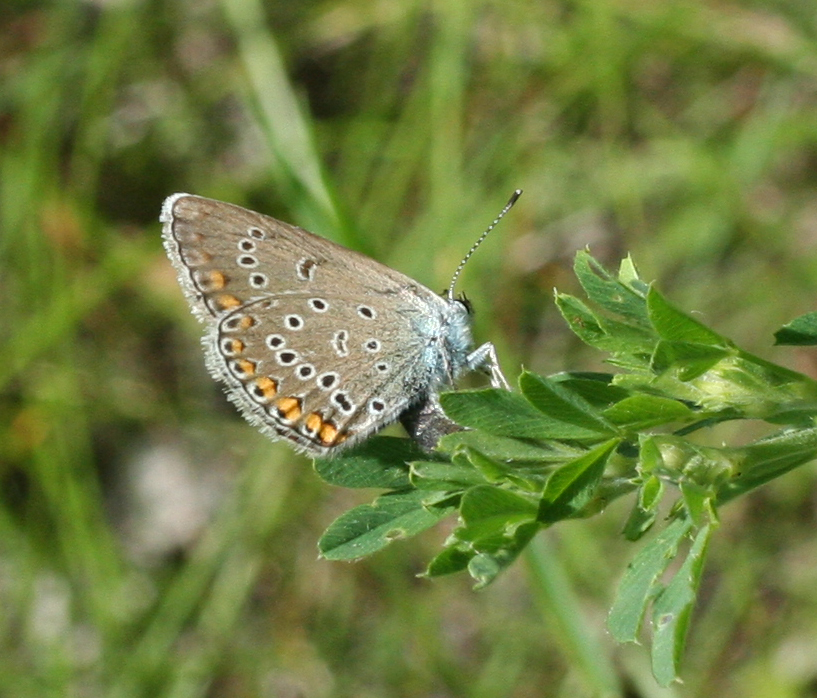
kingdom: Animalia
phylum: Arthropoda
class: Insecta
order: Lepidoptera
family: Lycaenidae
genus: Plebejus
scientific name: Plebejus amanda
